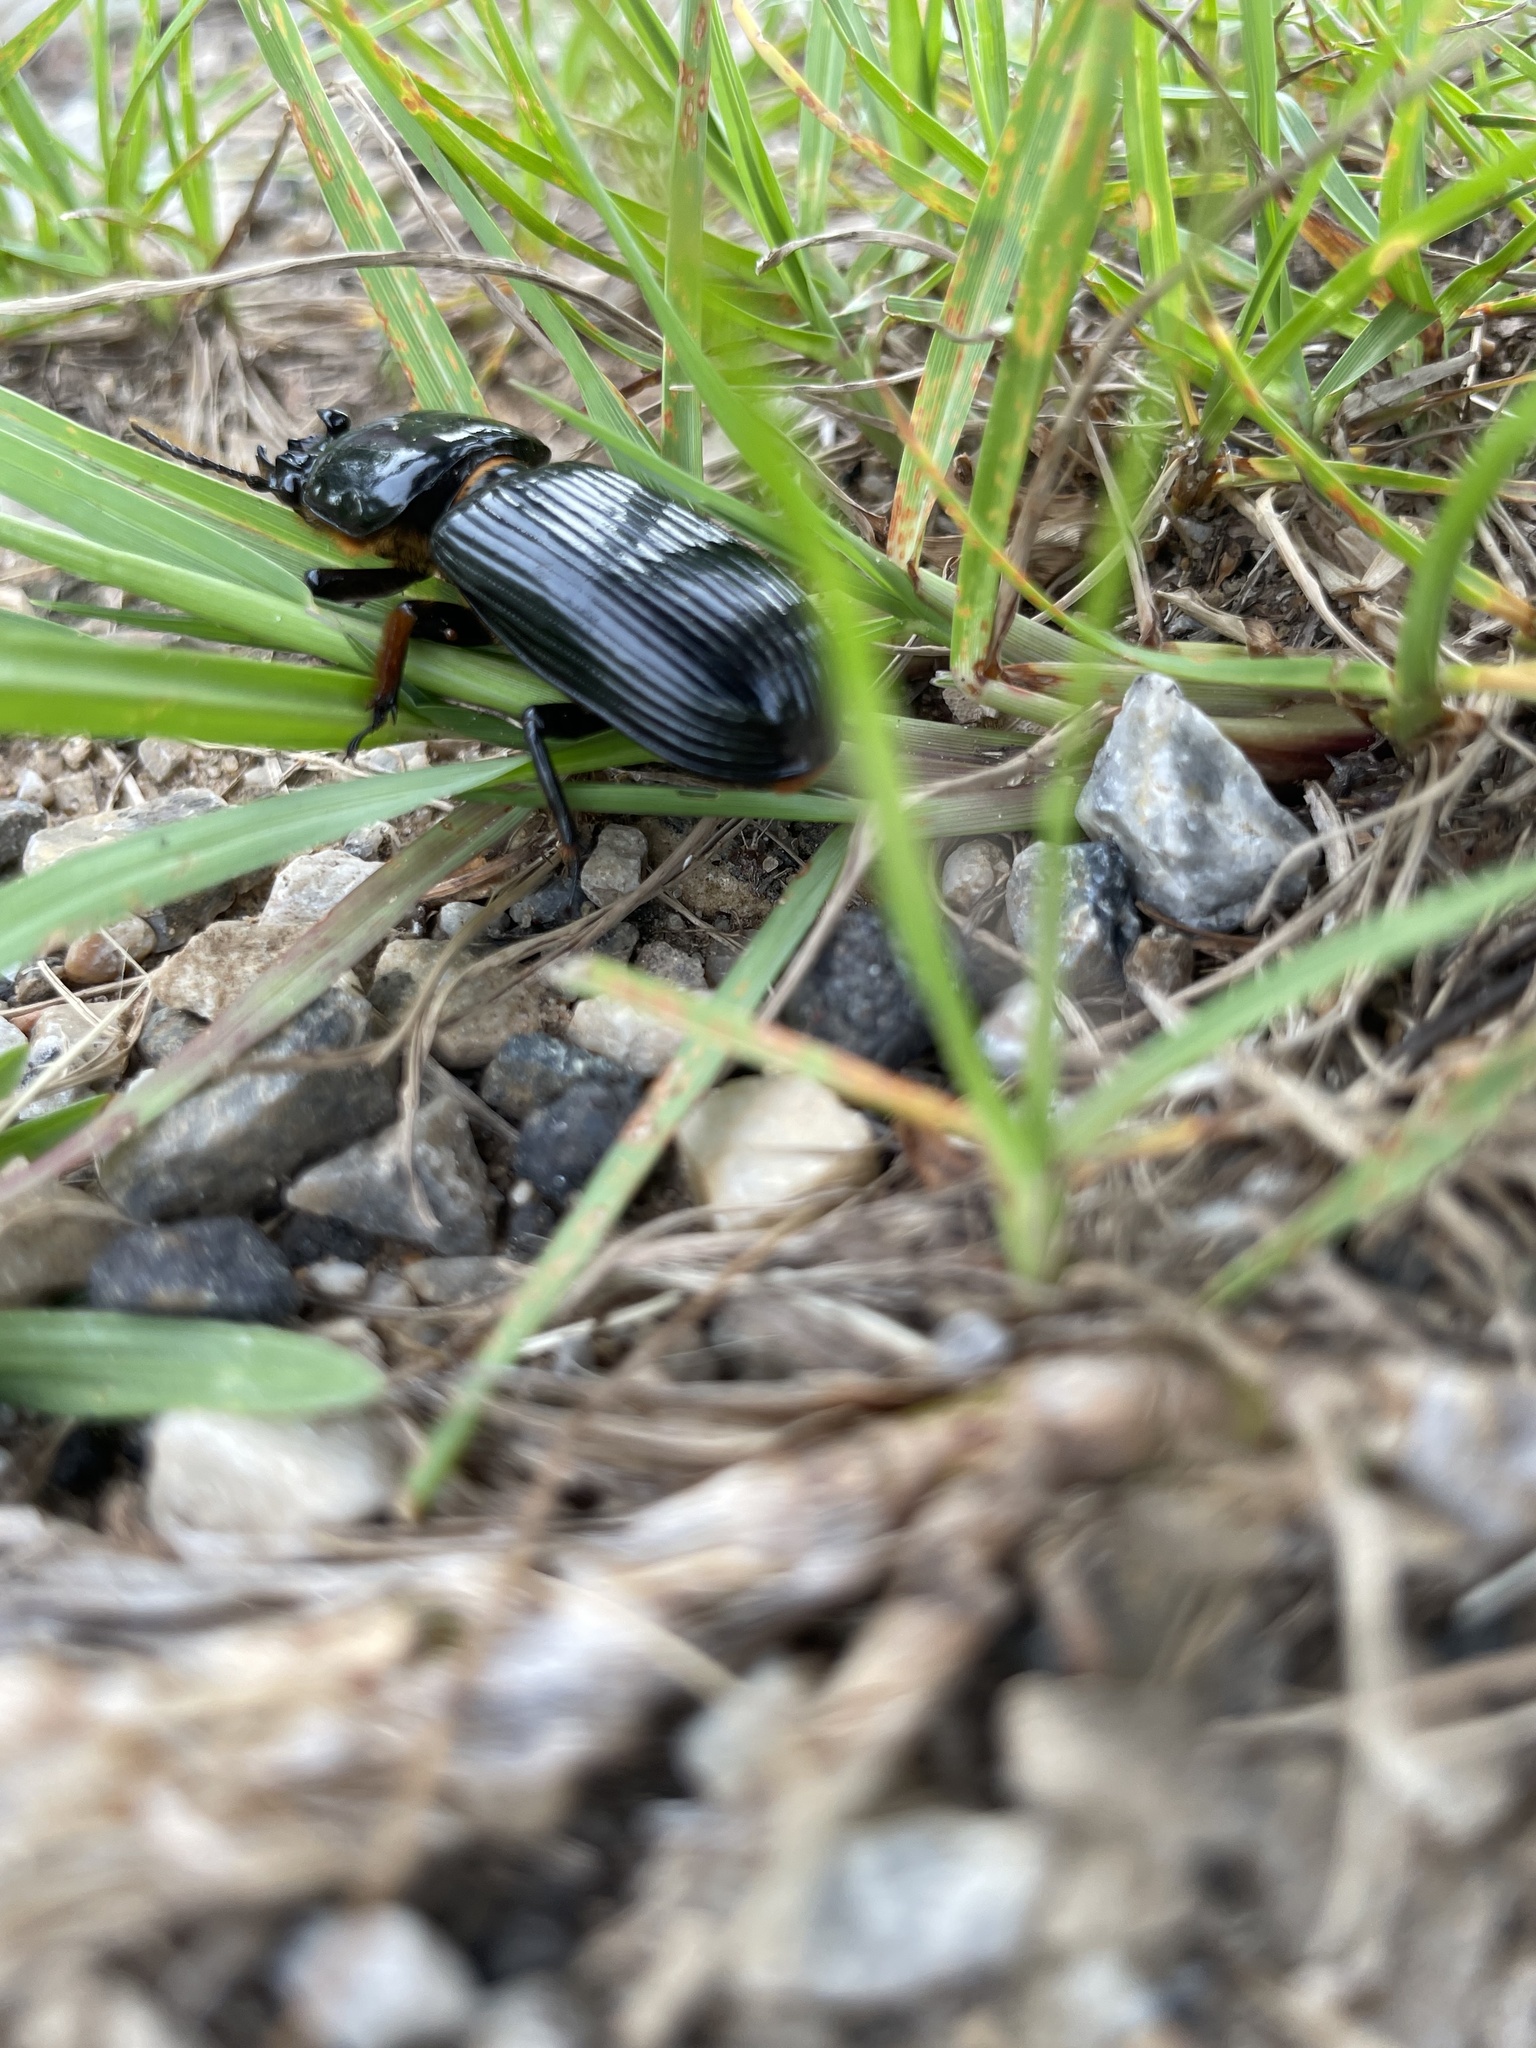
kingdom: Animalia
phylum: Arthropoda
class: Insecta
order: Coleoptera
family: Passalidae
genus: Odontotaenius
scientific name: Odontotaenius disjunctus
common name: Patent leather beetle
